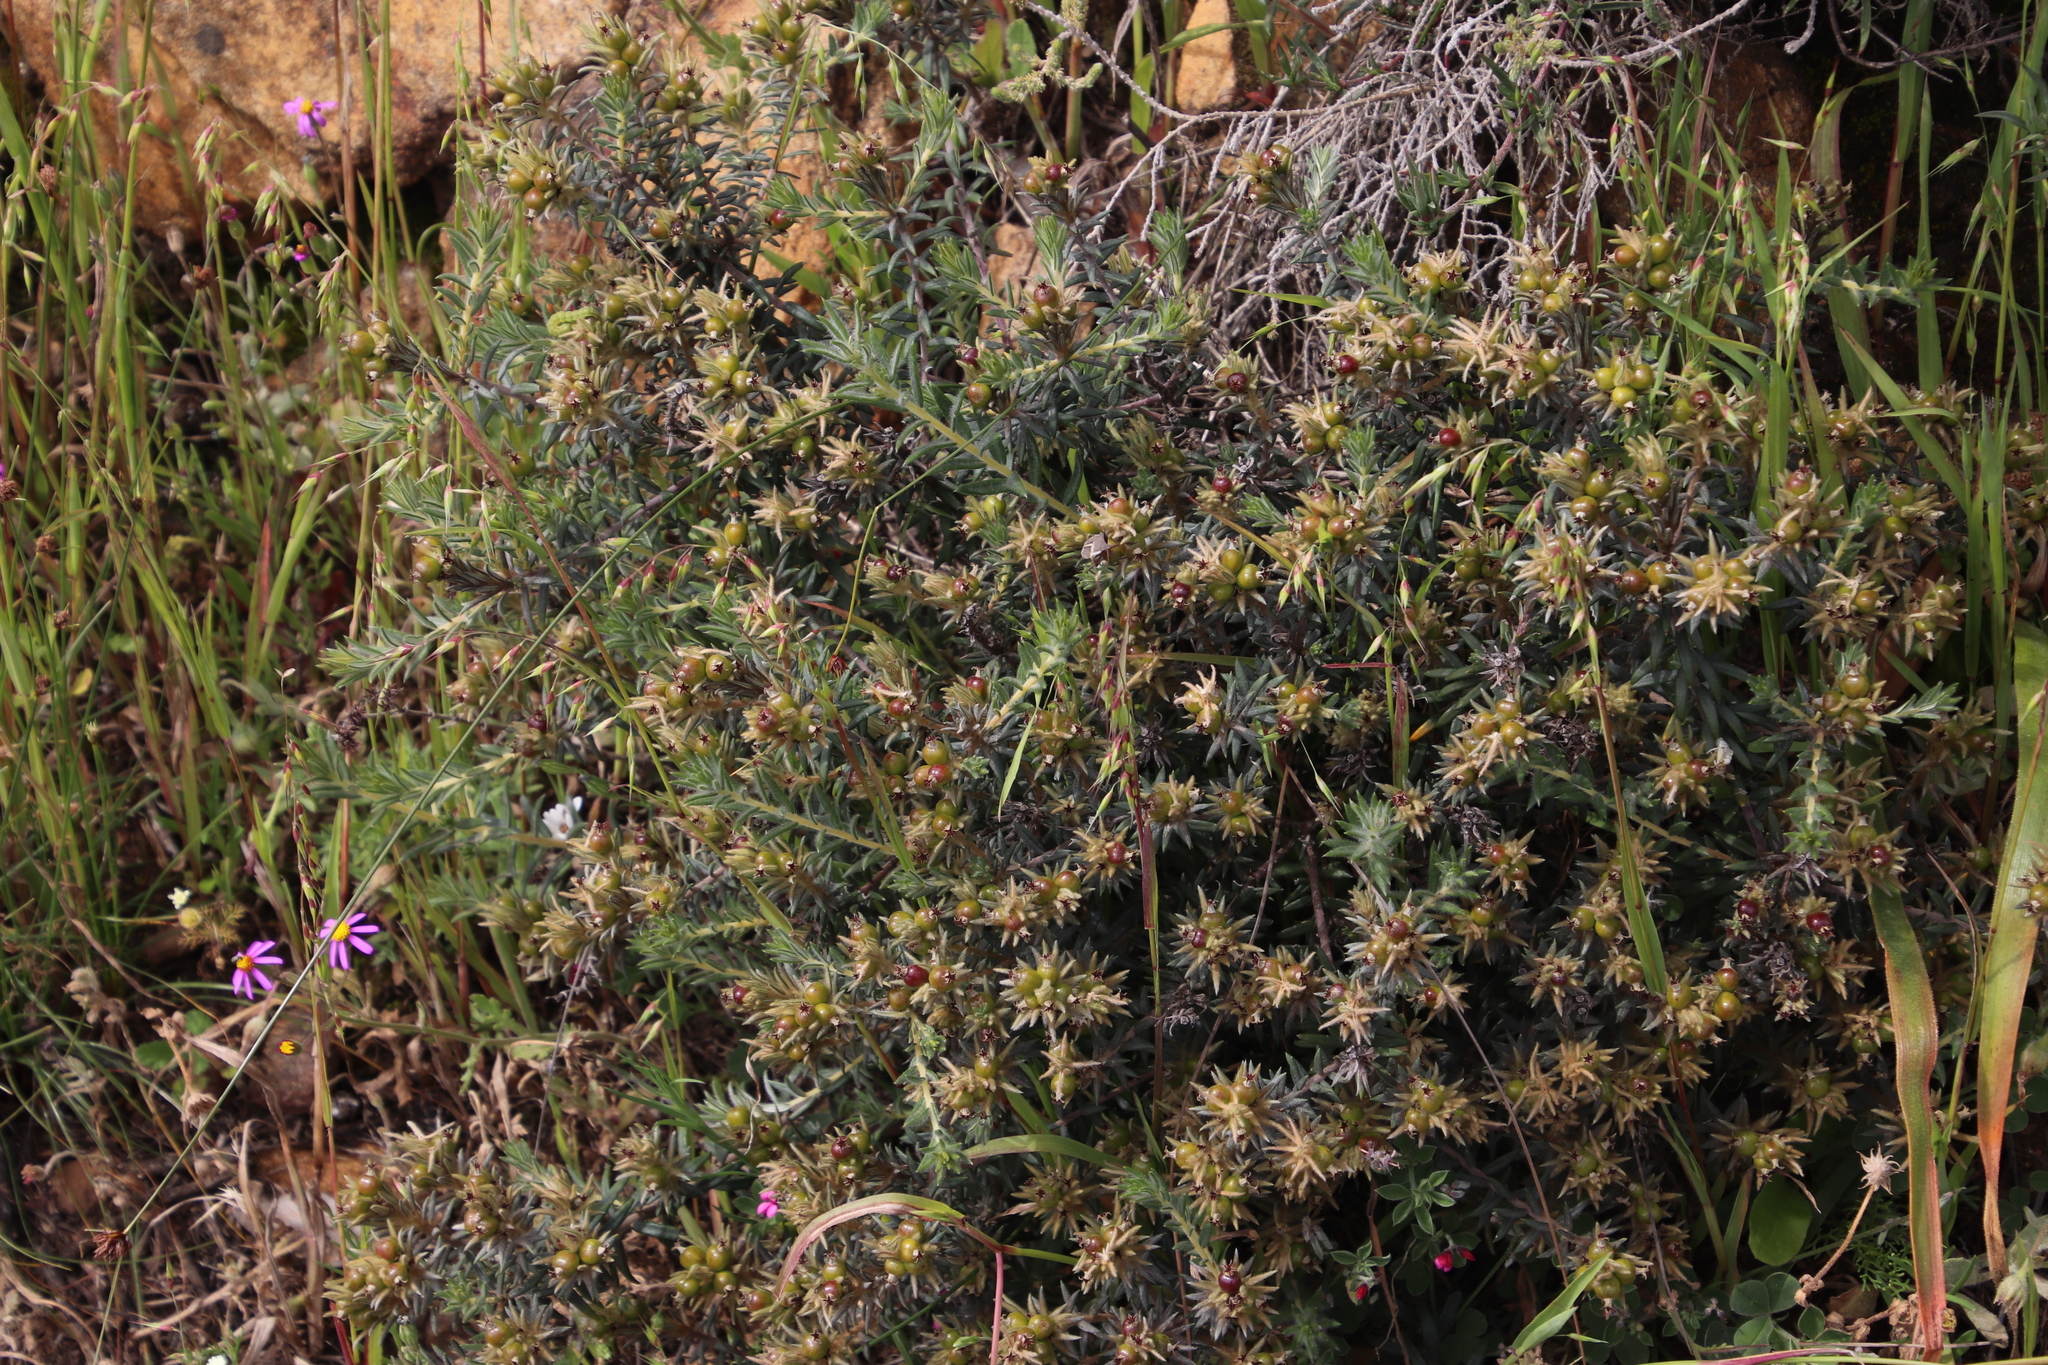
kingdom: Plantae
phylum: Tracheophyta
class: Magnoliopsida
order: Rosales
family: Rhamnaceae
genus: Phylica
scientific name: Phylica plumosa
